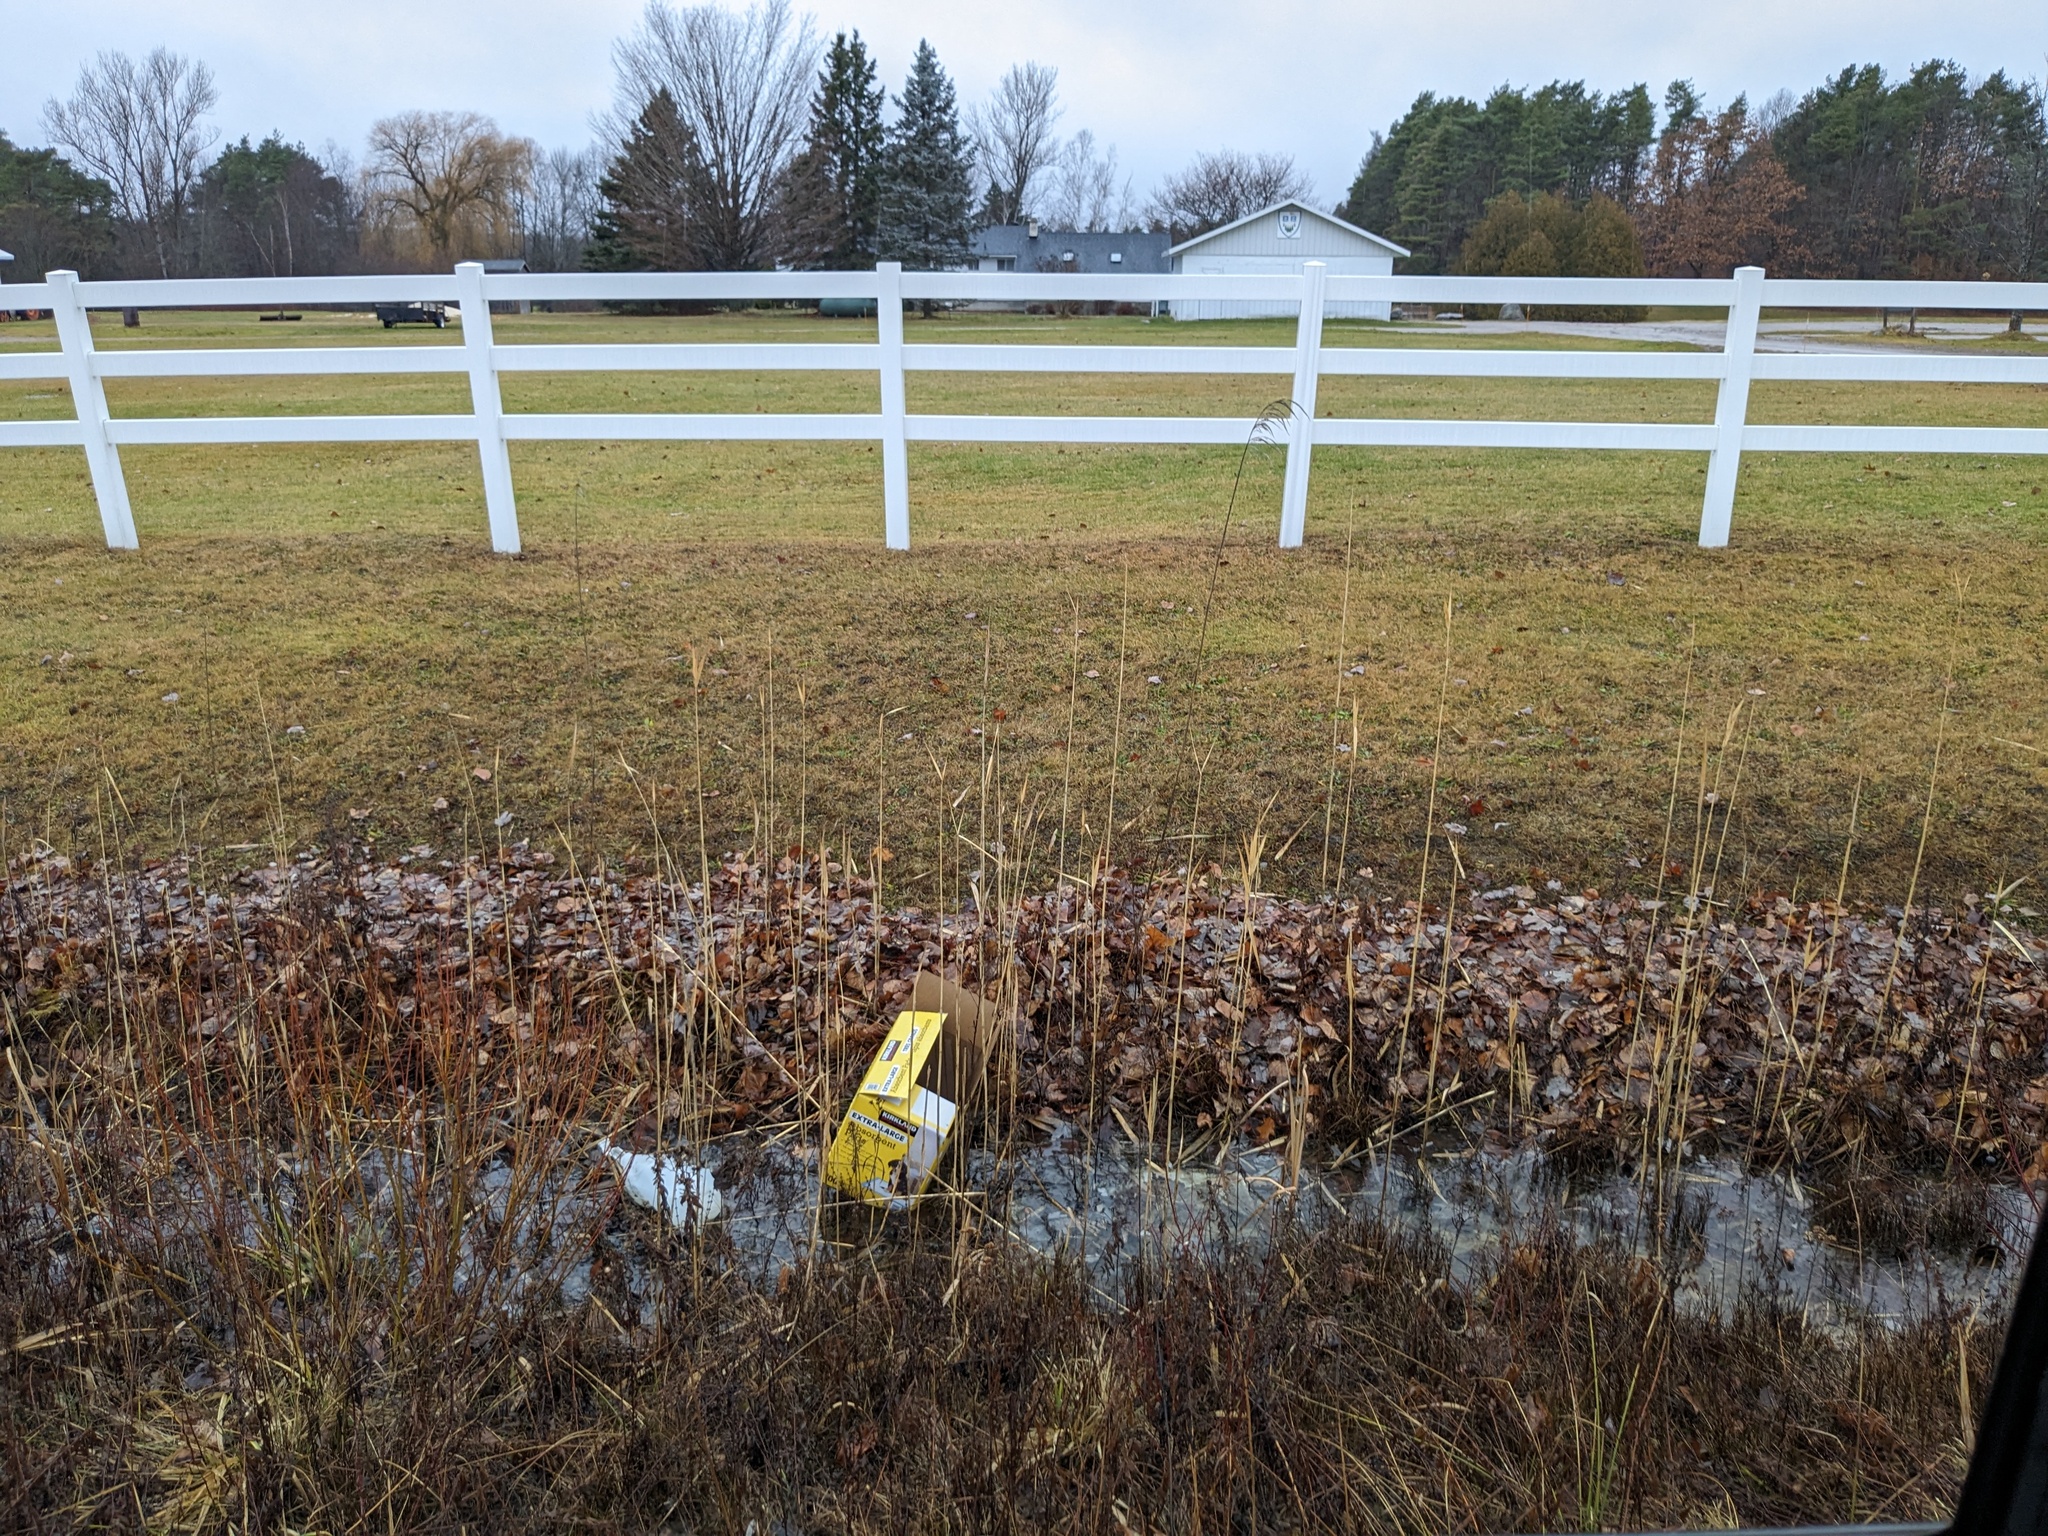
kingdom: Plantae
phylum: Tracheophyta
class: Liliopsida
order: Poales
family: Poaceae
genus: Phragmites
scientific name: Phragmites australis
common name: Common reed
